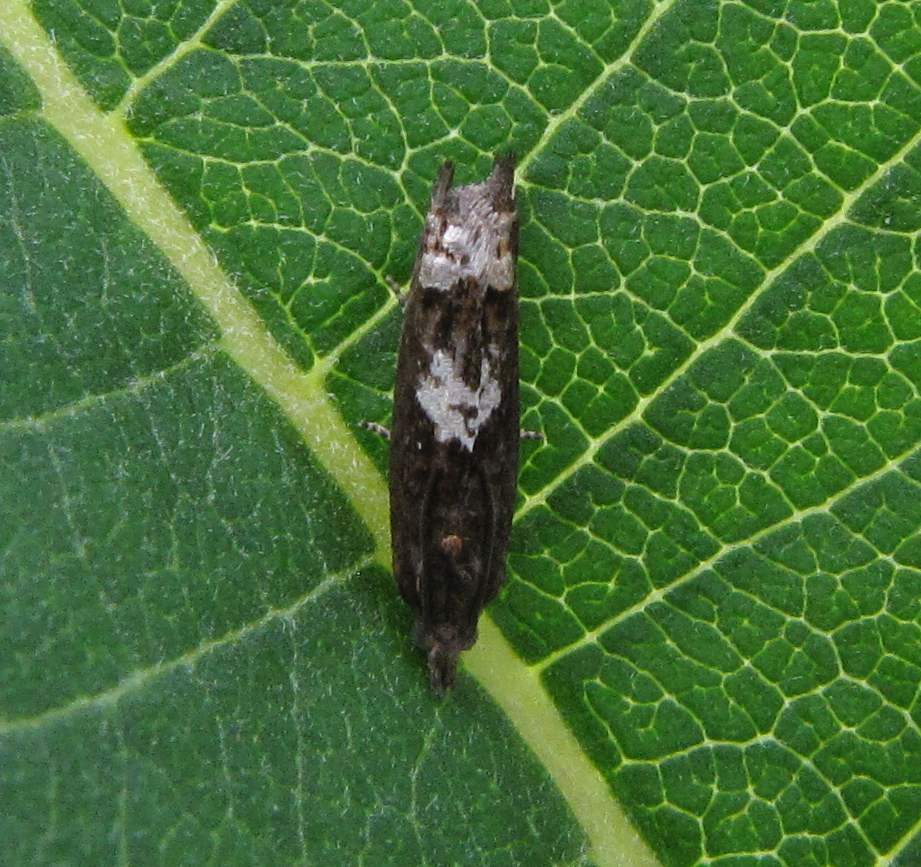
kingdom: Animalia
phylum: Arthropoda
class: Insecta
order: Lepidoptera
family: Tortricidae
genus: Eucosma
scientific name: Eucosma parmatana
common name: Aster eucosma moth
